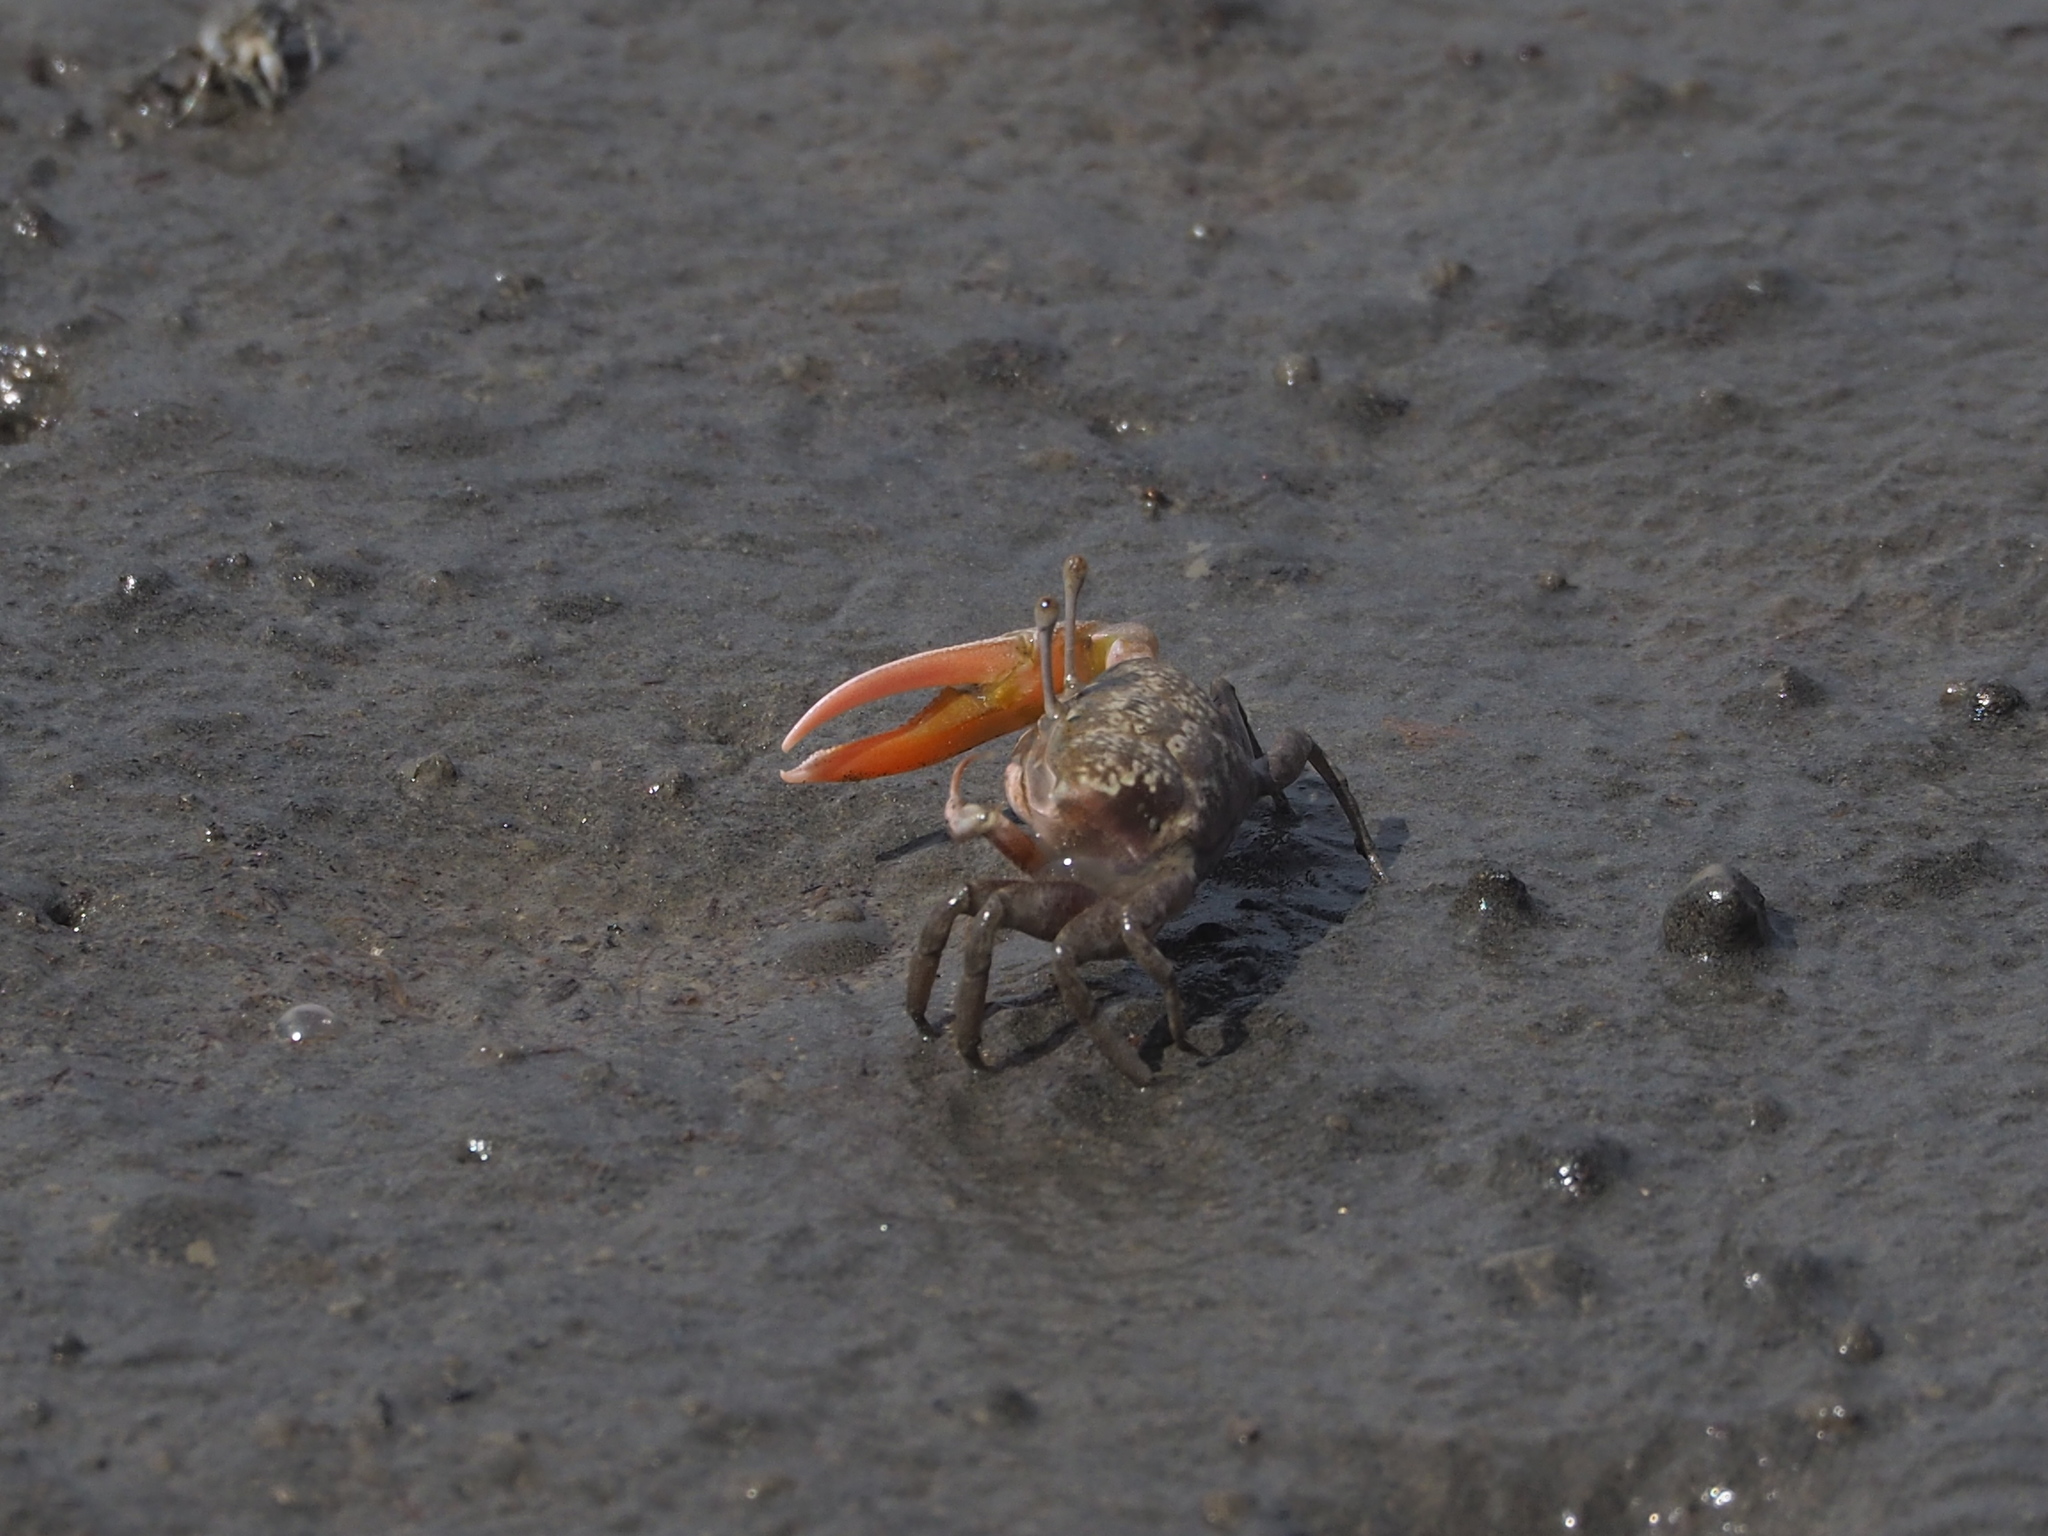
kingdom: Animalia
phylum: Arthropoda
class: Malacostraca
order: Decapoda
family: Ocypodidae
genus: Gelasimus
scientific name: Gelasimus borealis
